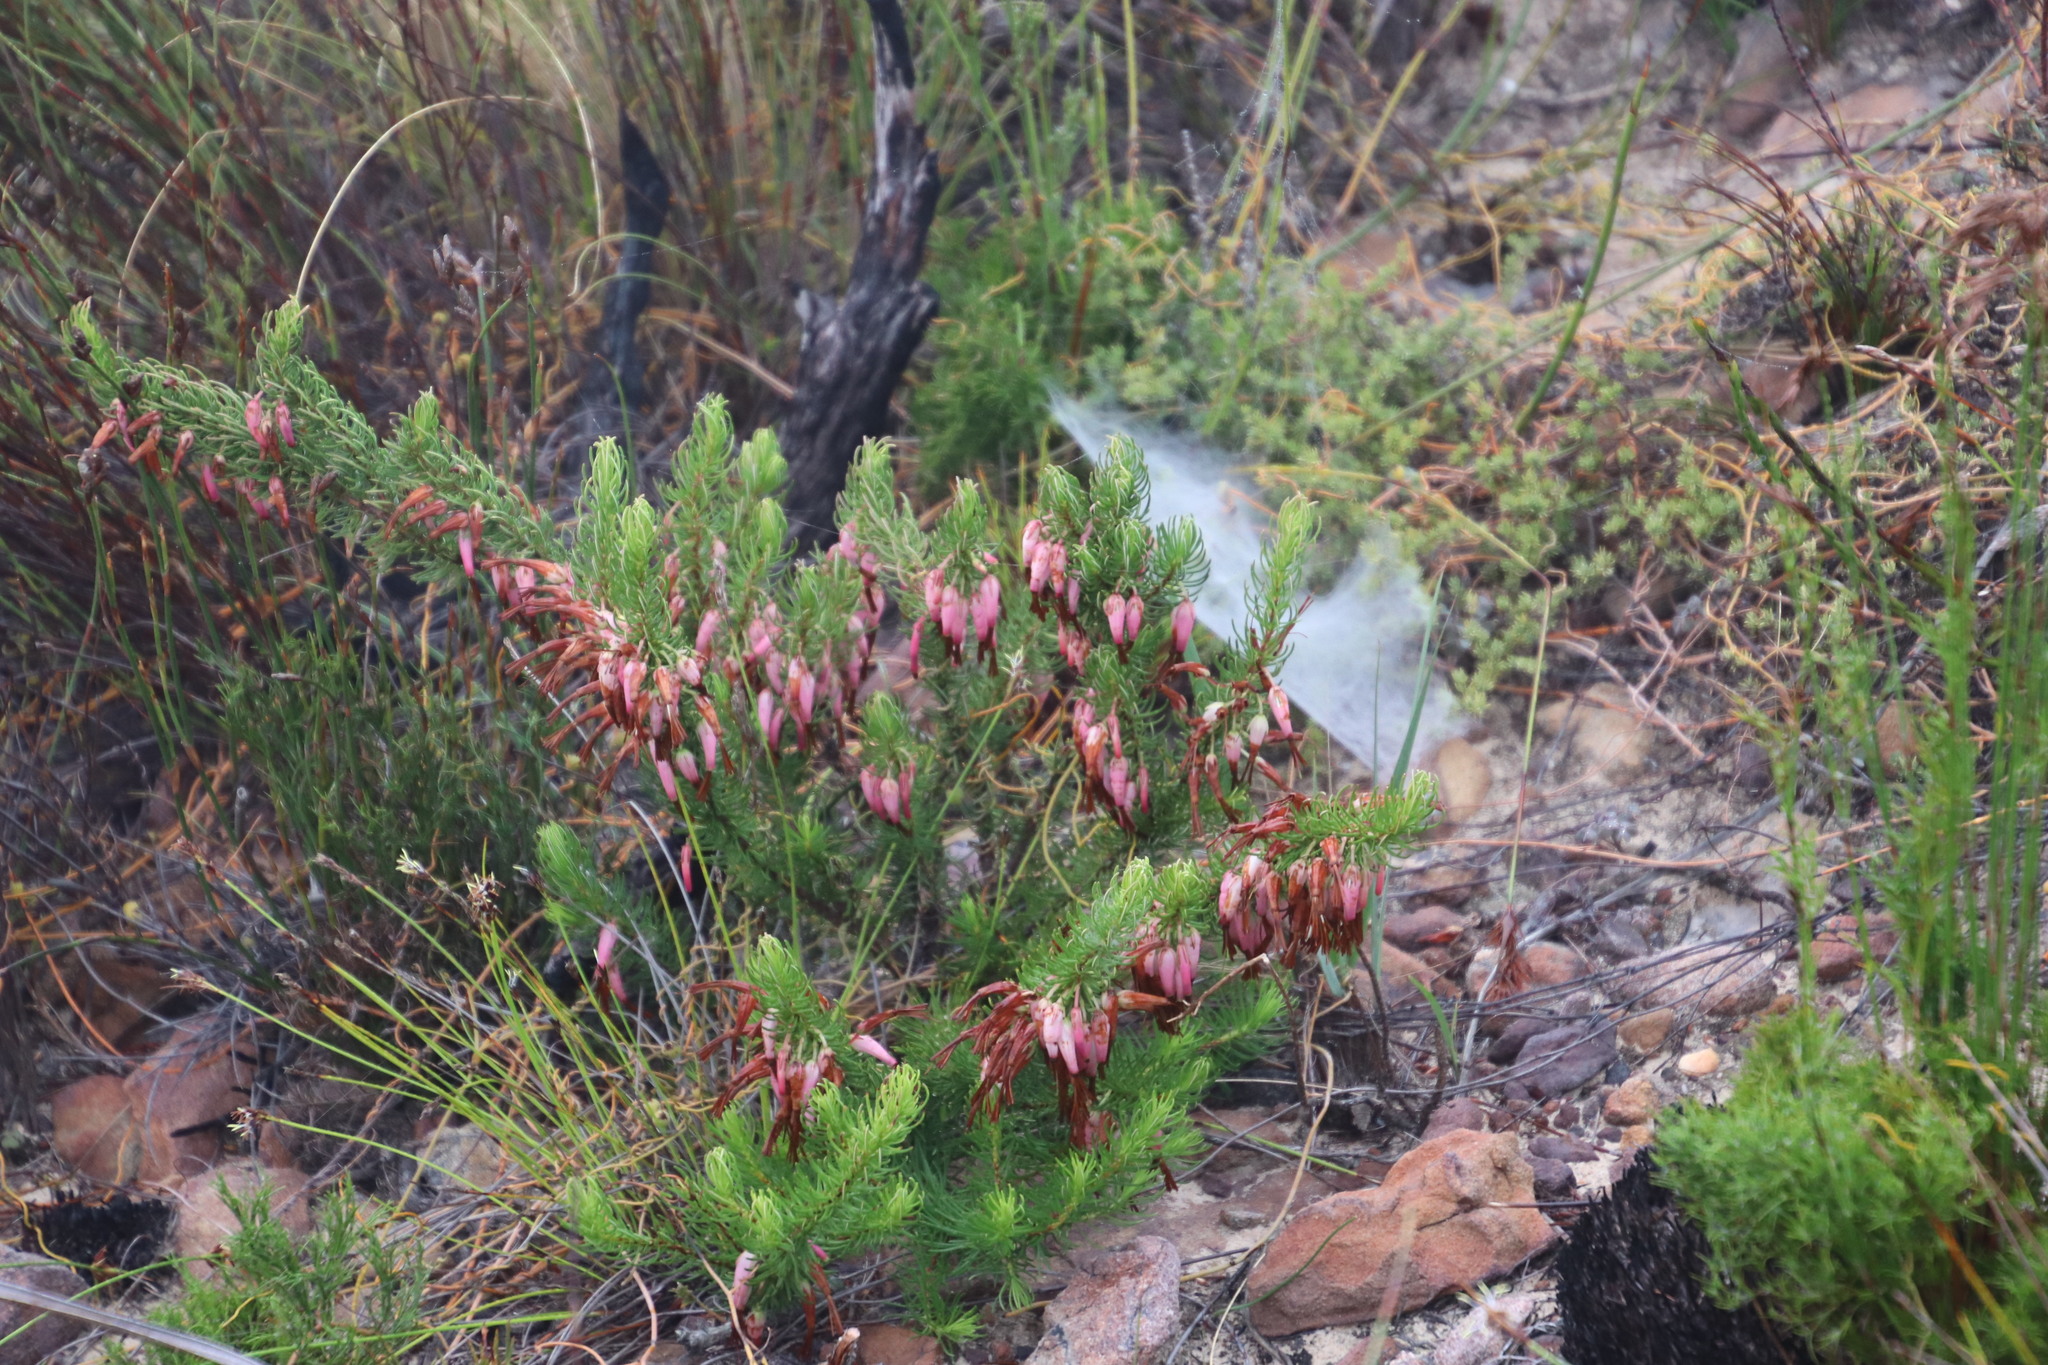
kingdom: Plantae
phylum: Tracheophyta
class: Magnoliopsida
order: Ericales
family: Ericaceae
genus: Erica
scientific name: Erica plukenetii
